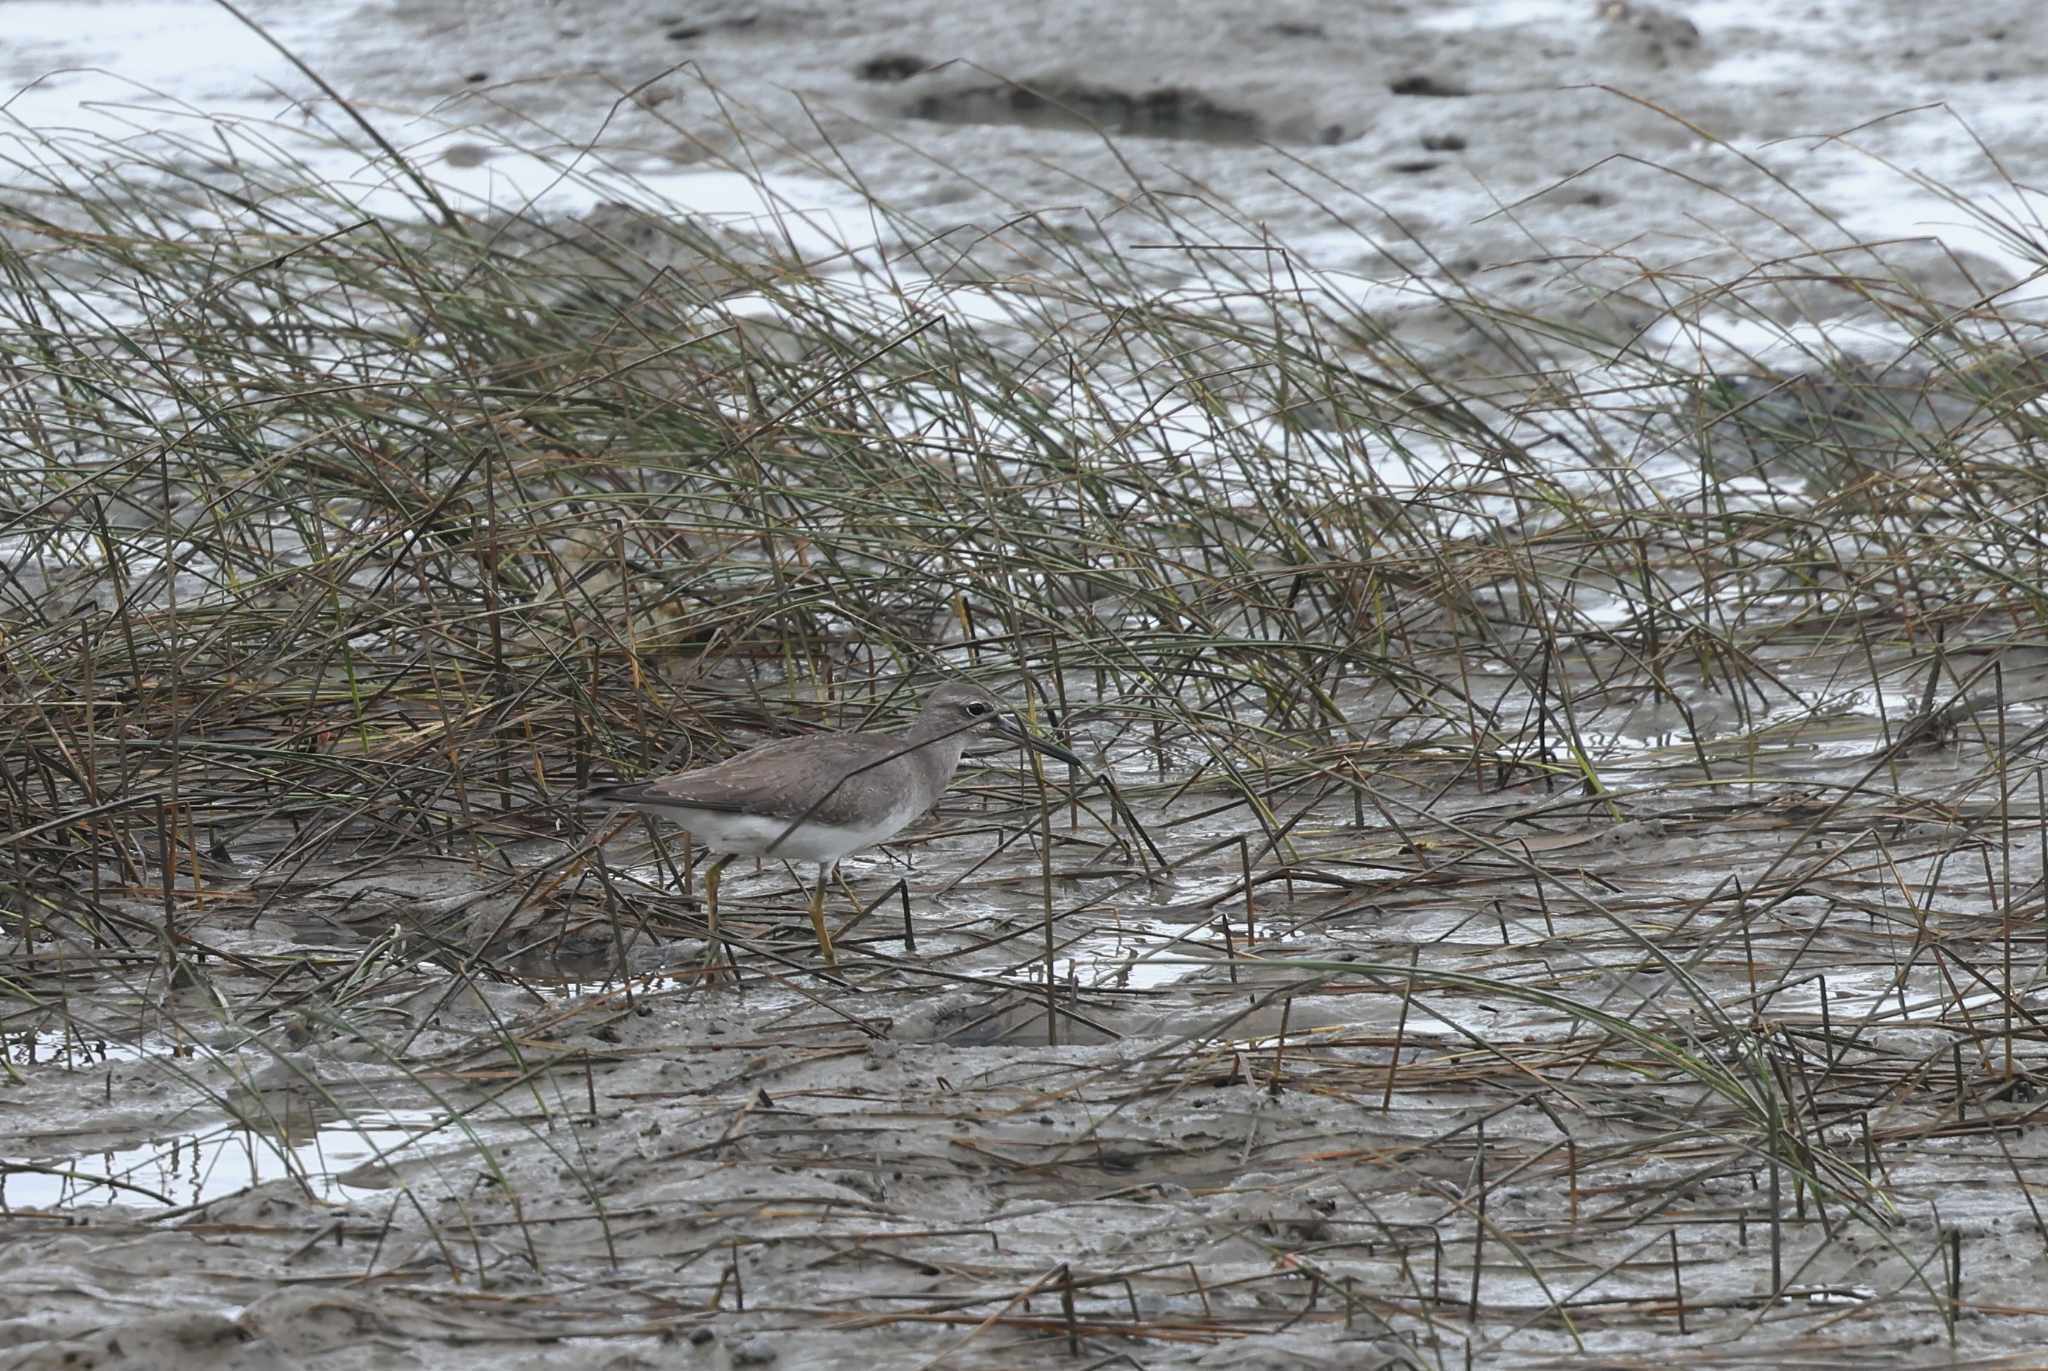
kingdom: Animalia
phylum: Chordata
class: Aves
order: Charadriiformes
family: Scolopacidae
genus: Tringa
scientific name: Tringa brevipes
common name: Grey-tailed tattler
